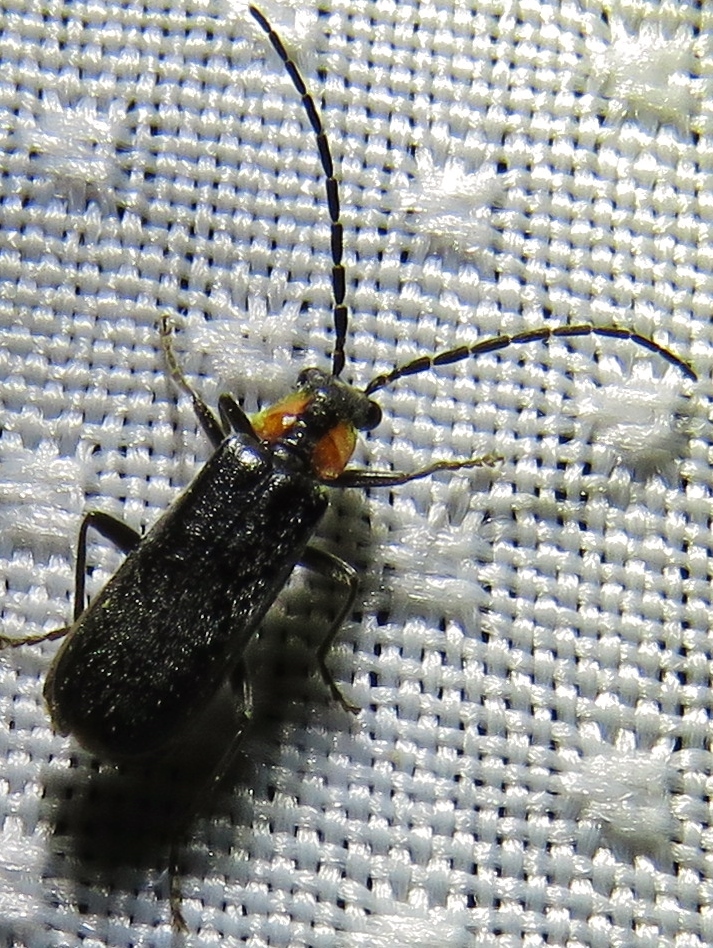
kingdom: Animalia
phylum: Arthropoda
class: Insecta
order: Coleoptera
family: Cantharidae
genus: Rhagonycha
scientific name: Rhagonycha lineola
